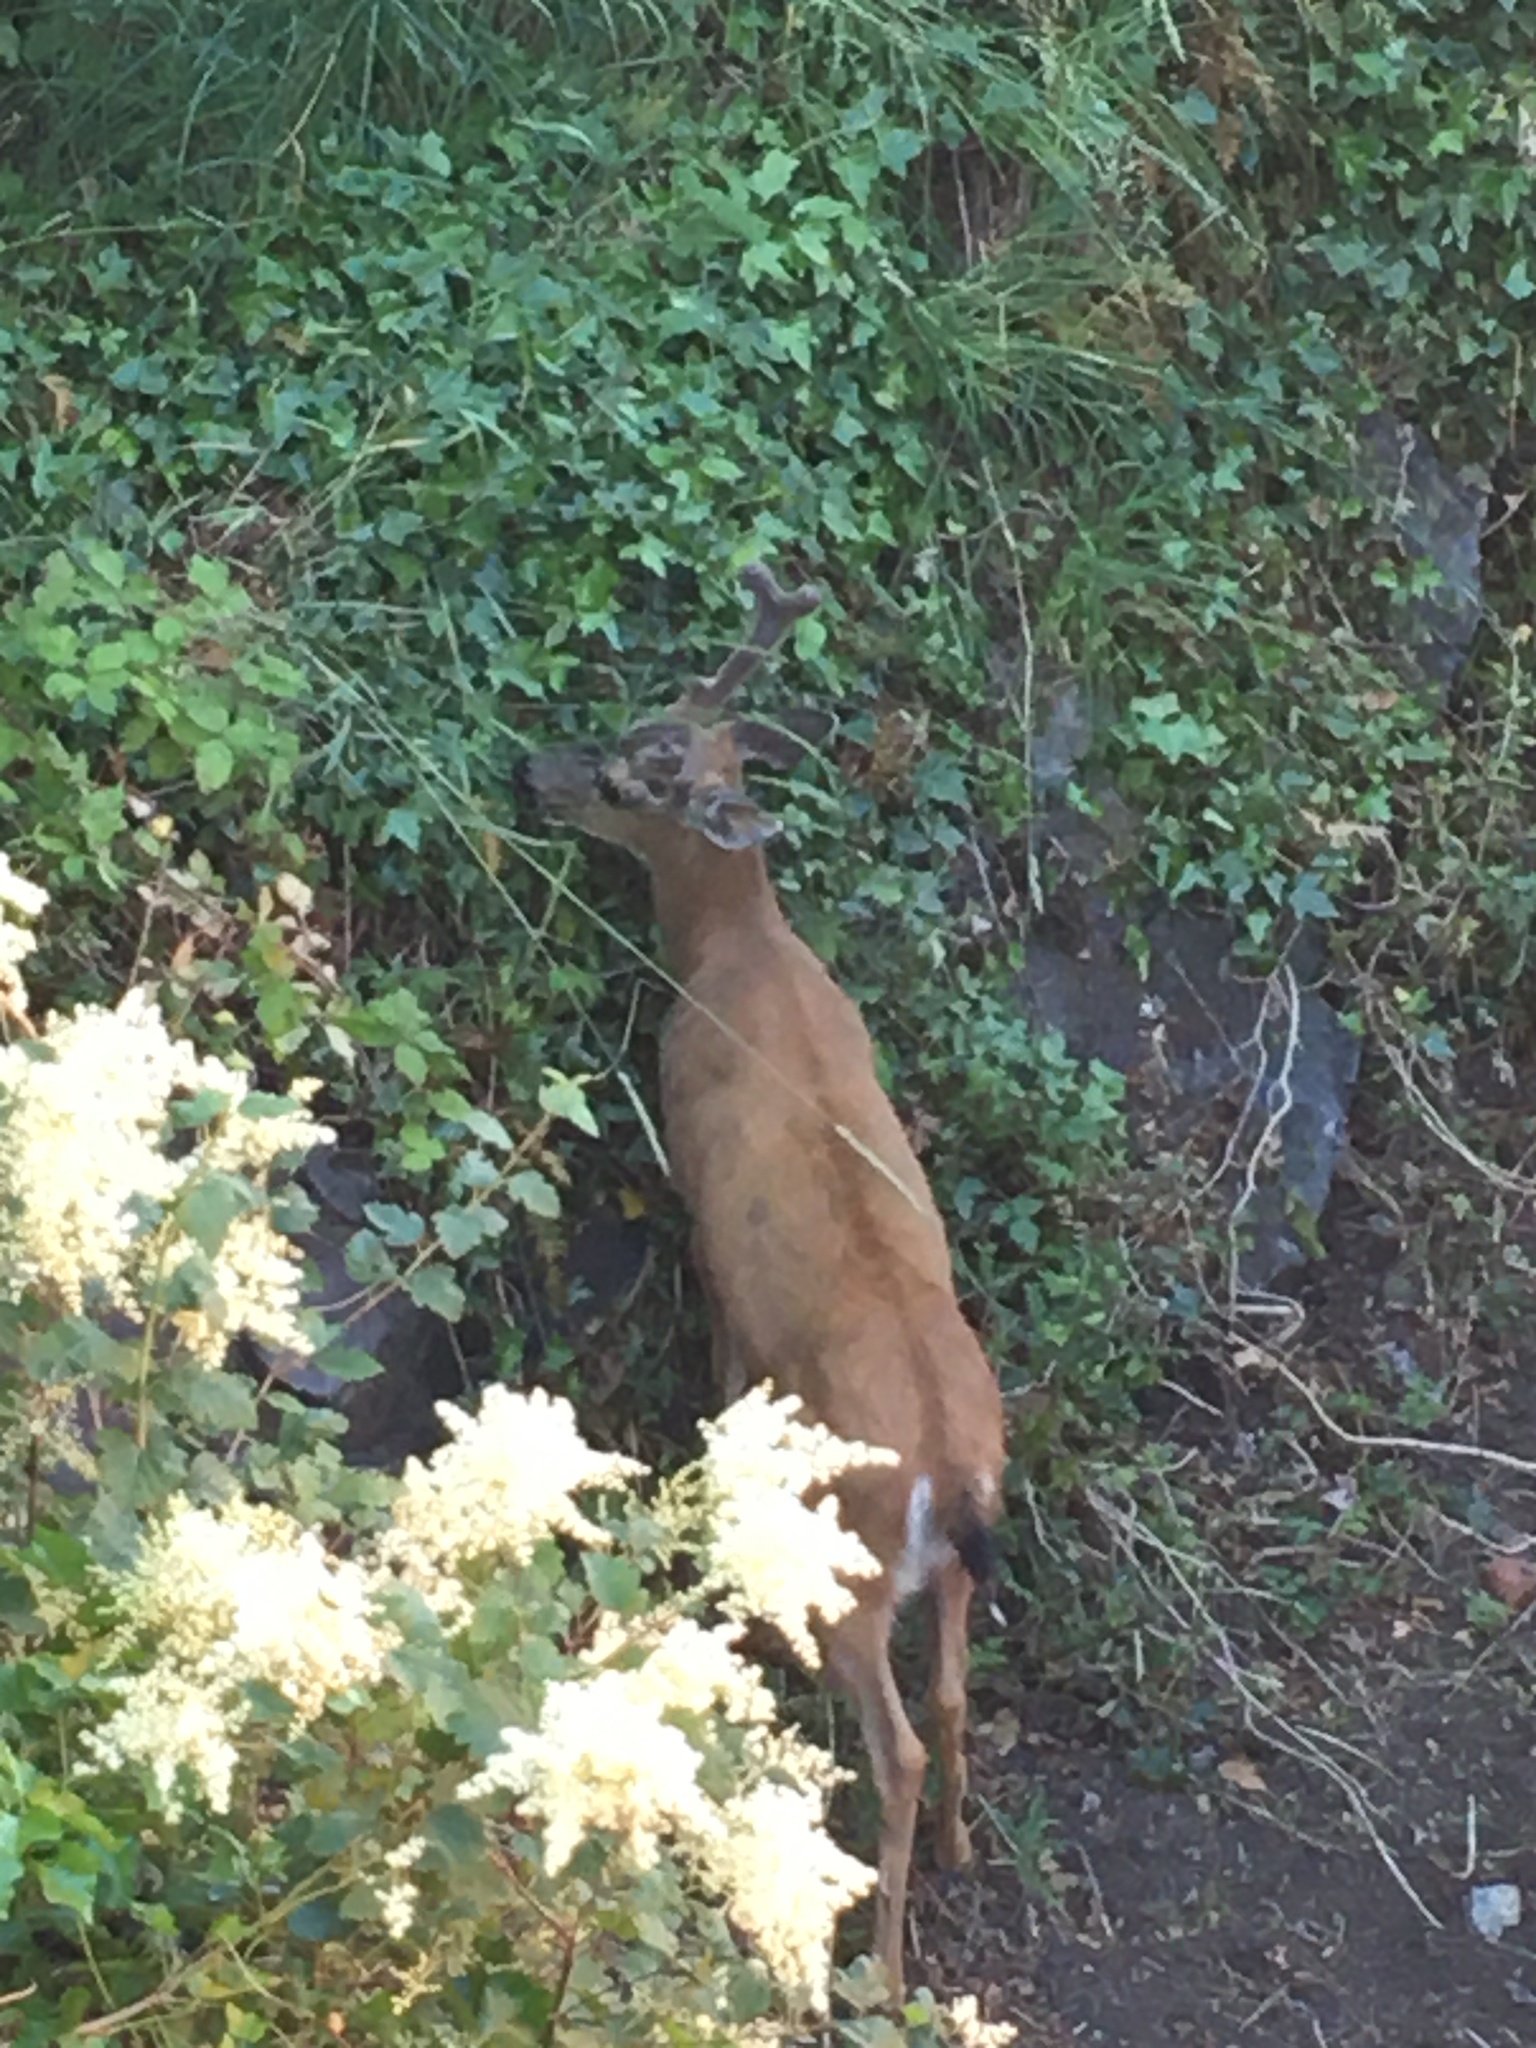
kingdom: Animalia
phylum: Chordata
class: Mammalia
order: Artiodactyla
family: Cervidae
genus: Odocoileus
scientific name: Odocoileus hemionus
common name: Mule deer
